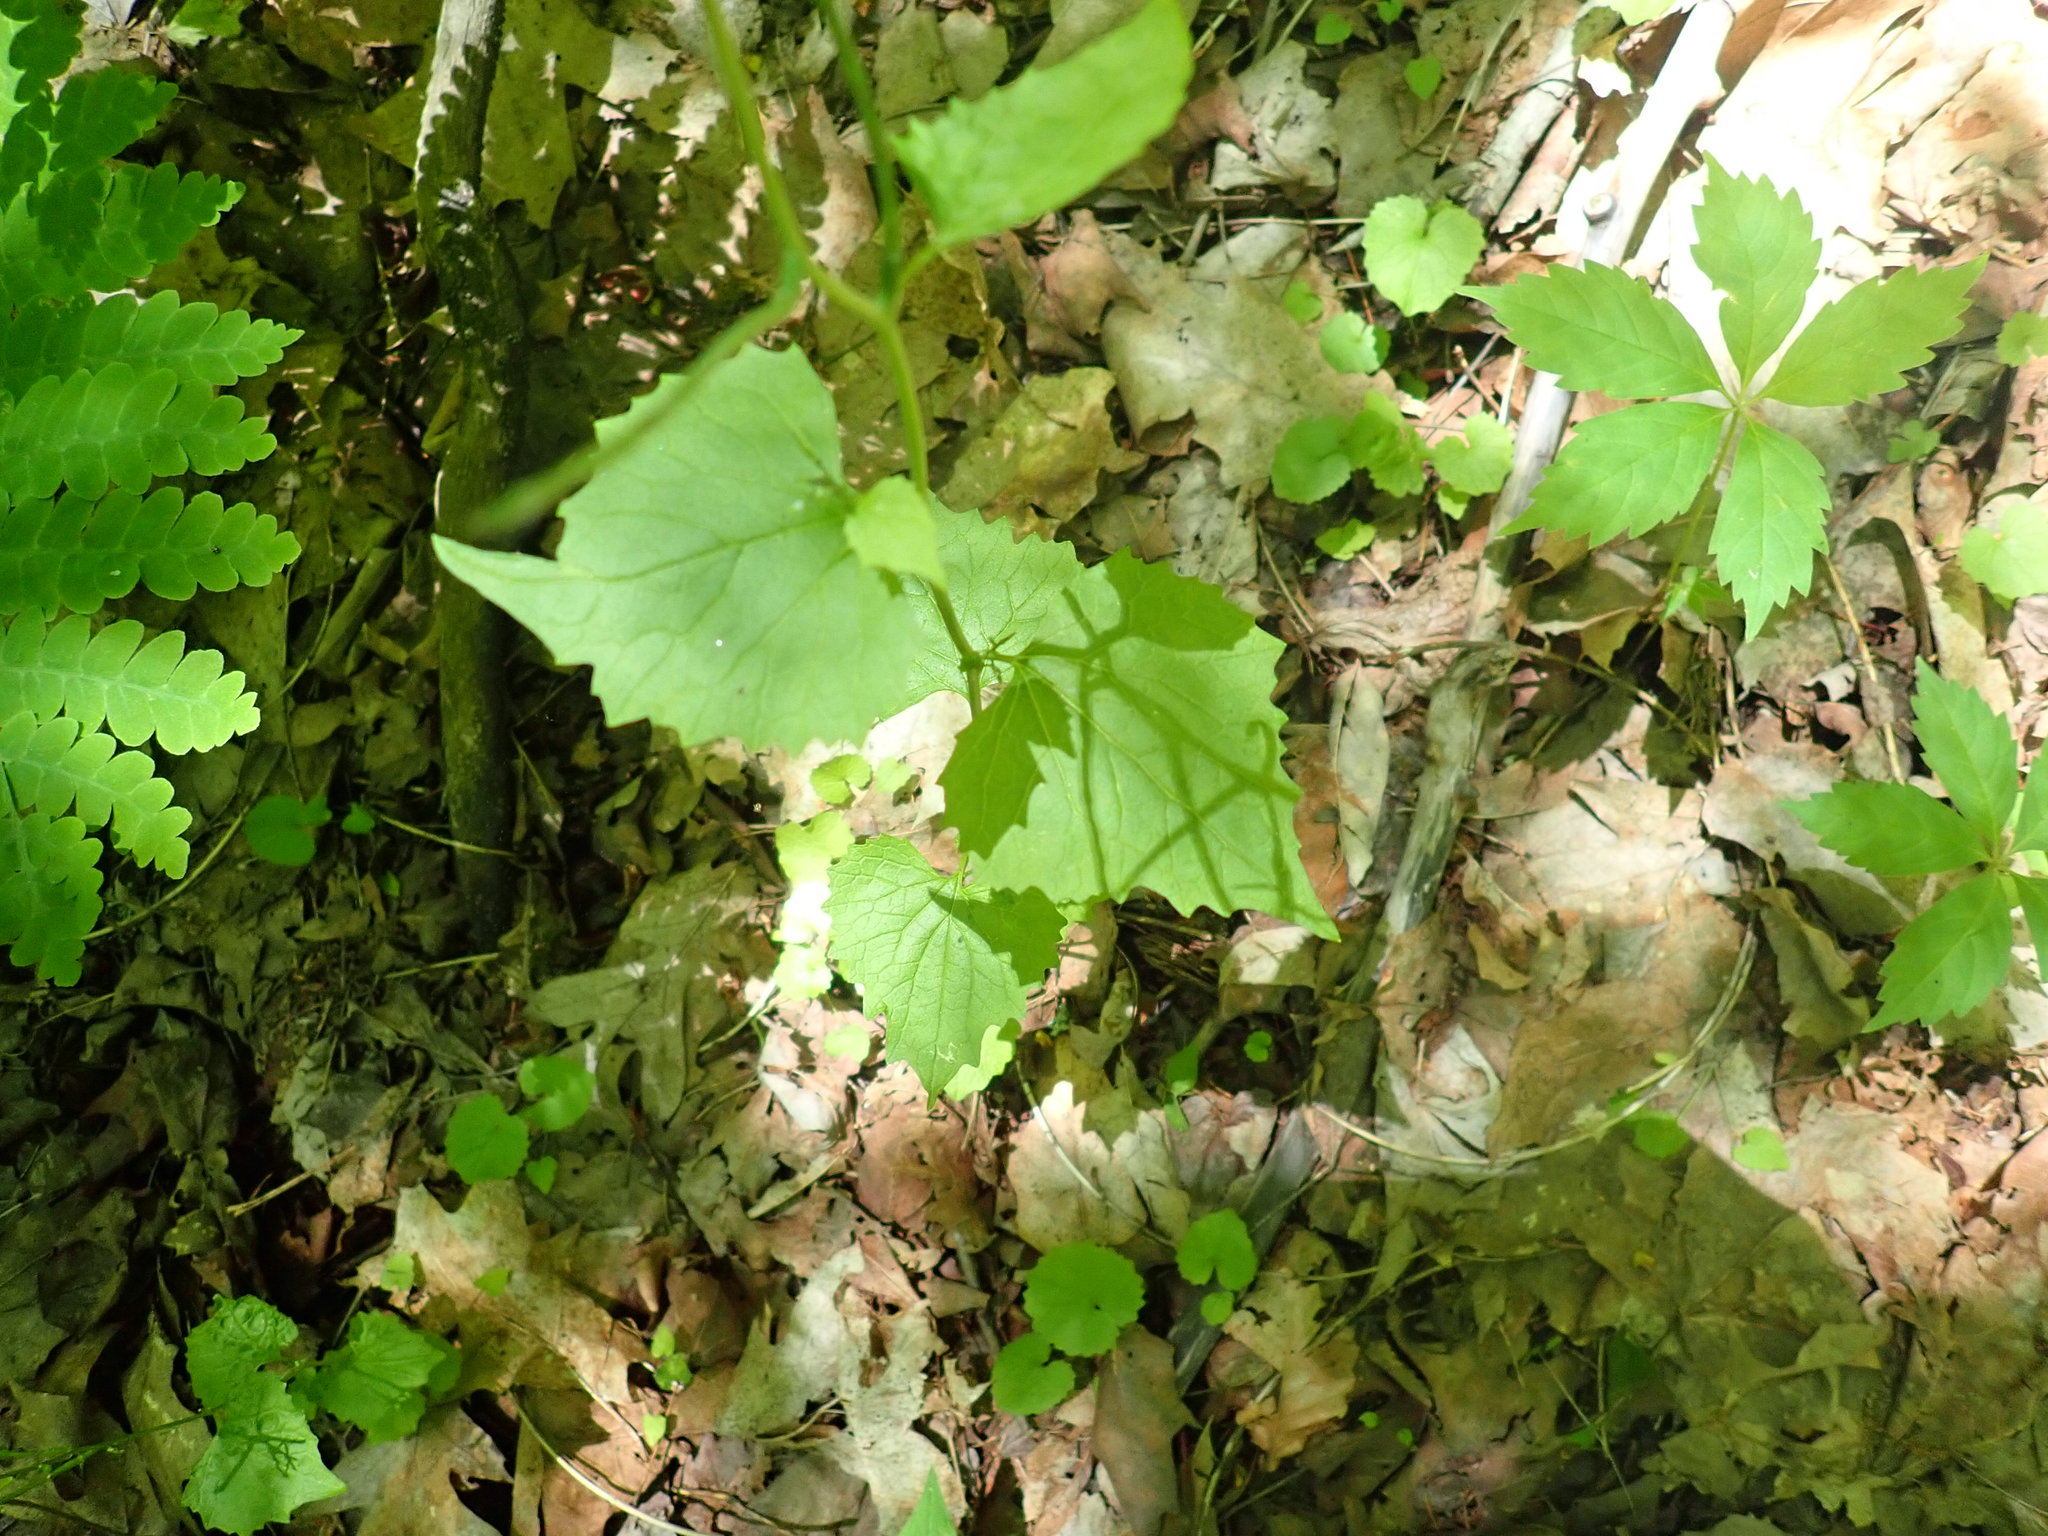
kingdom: Plantae
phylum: Tracheophyta
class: Magnoliopsida
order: Brassicales
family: Brassicaceae
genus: Alliaria
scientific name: Alliaria petiolata
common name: Garlic mustard
